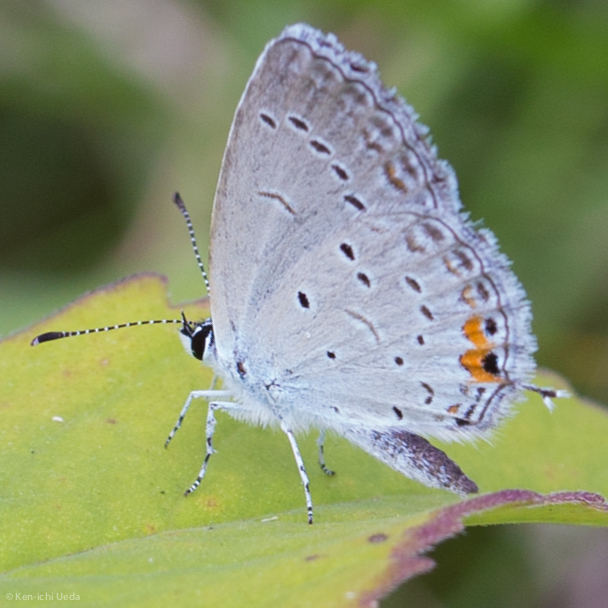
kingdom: Animalia
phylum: Arthropoda
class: Insecta
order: Lepidoptera
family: Lycaenidae
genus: Elkalyce
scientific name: Elkalyce comyntas
